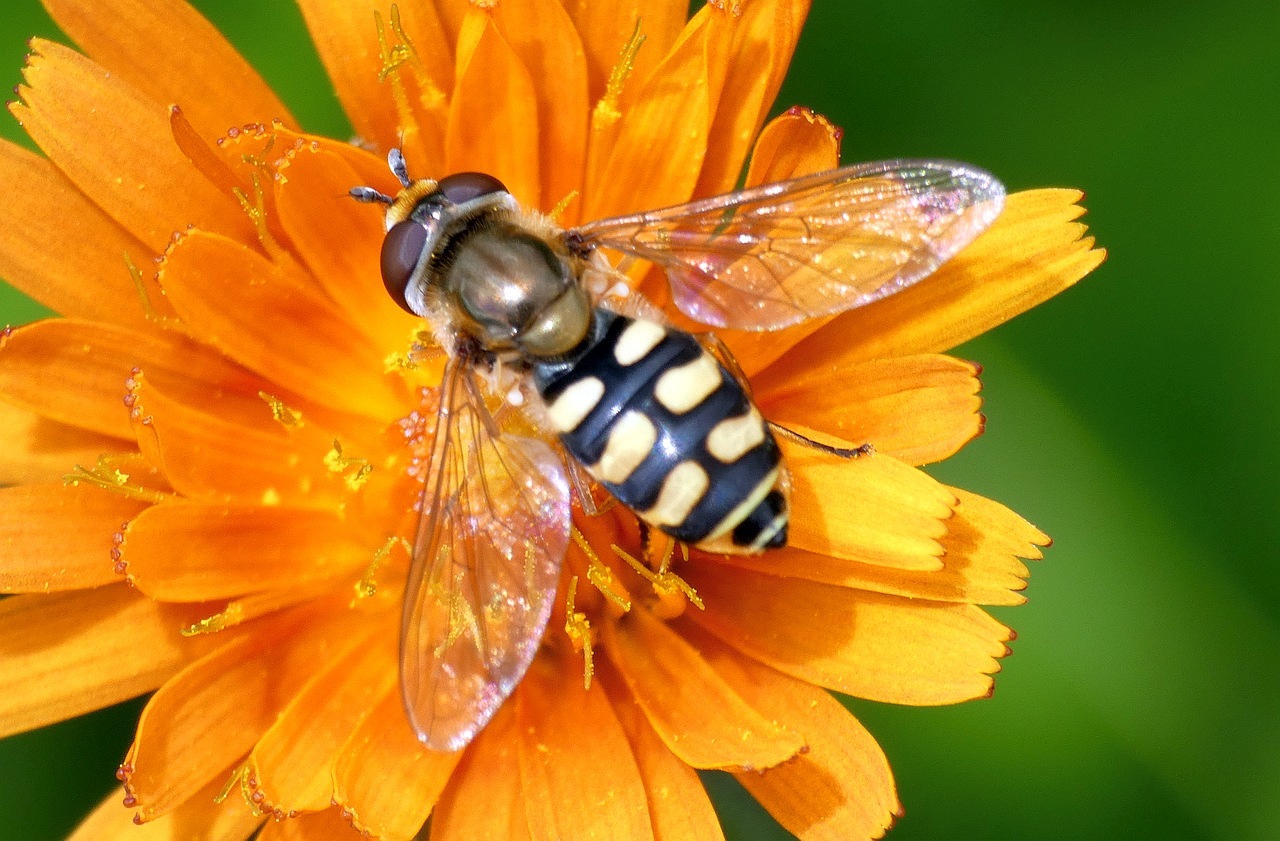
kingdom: Animalia
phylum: Arthropoda
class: Insecta
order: Diptera
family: Syrphidae
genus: Eupeodes
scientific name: Eupeodes corollae
